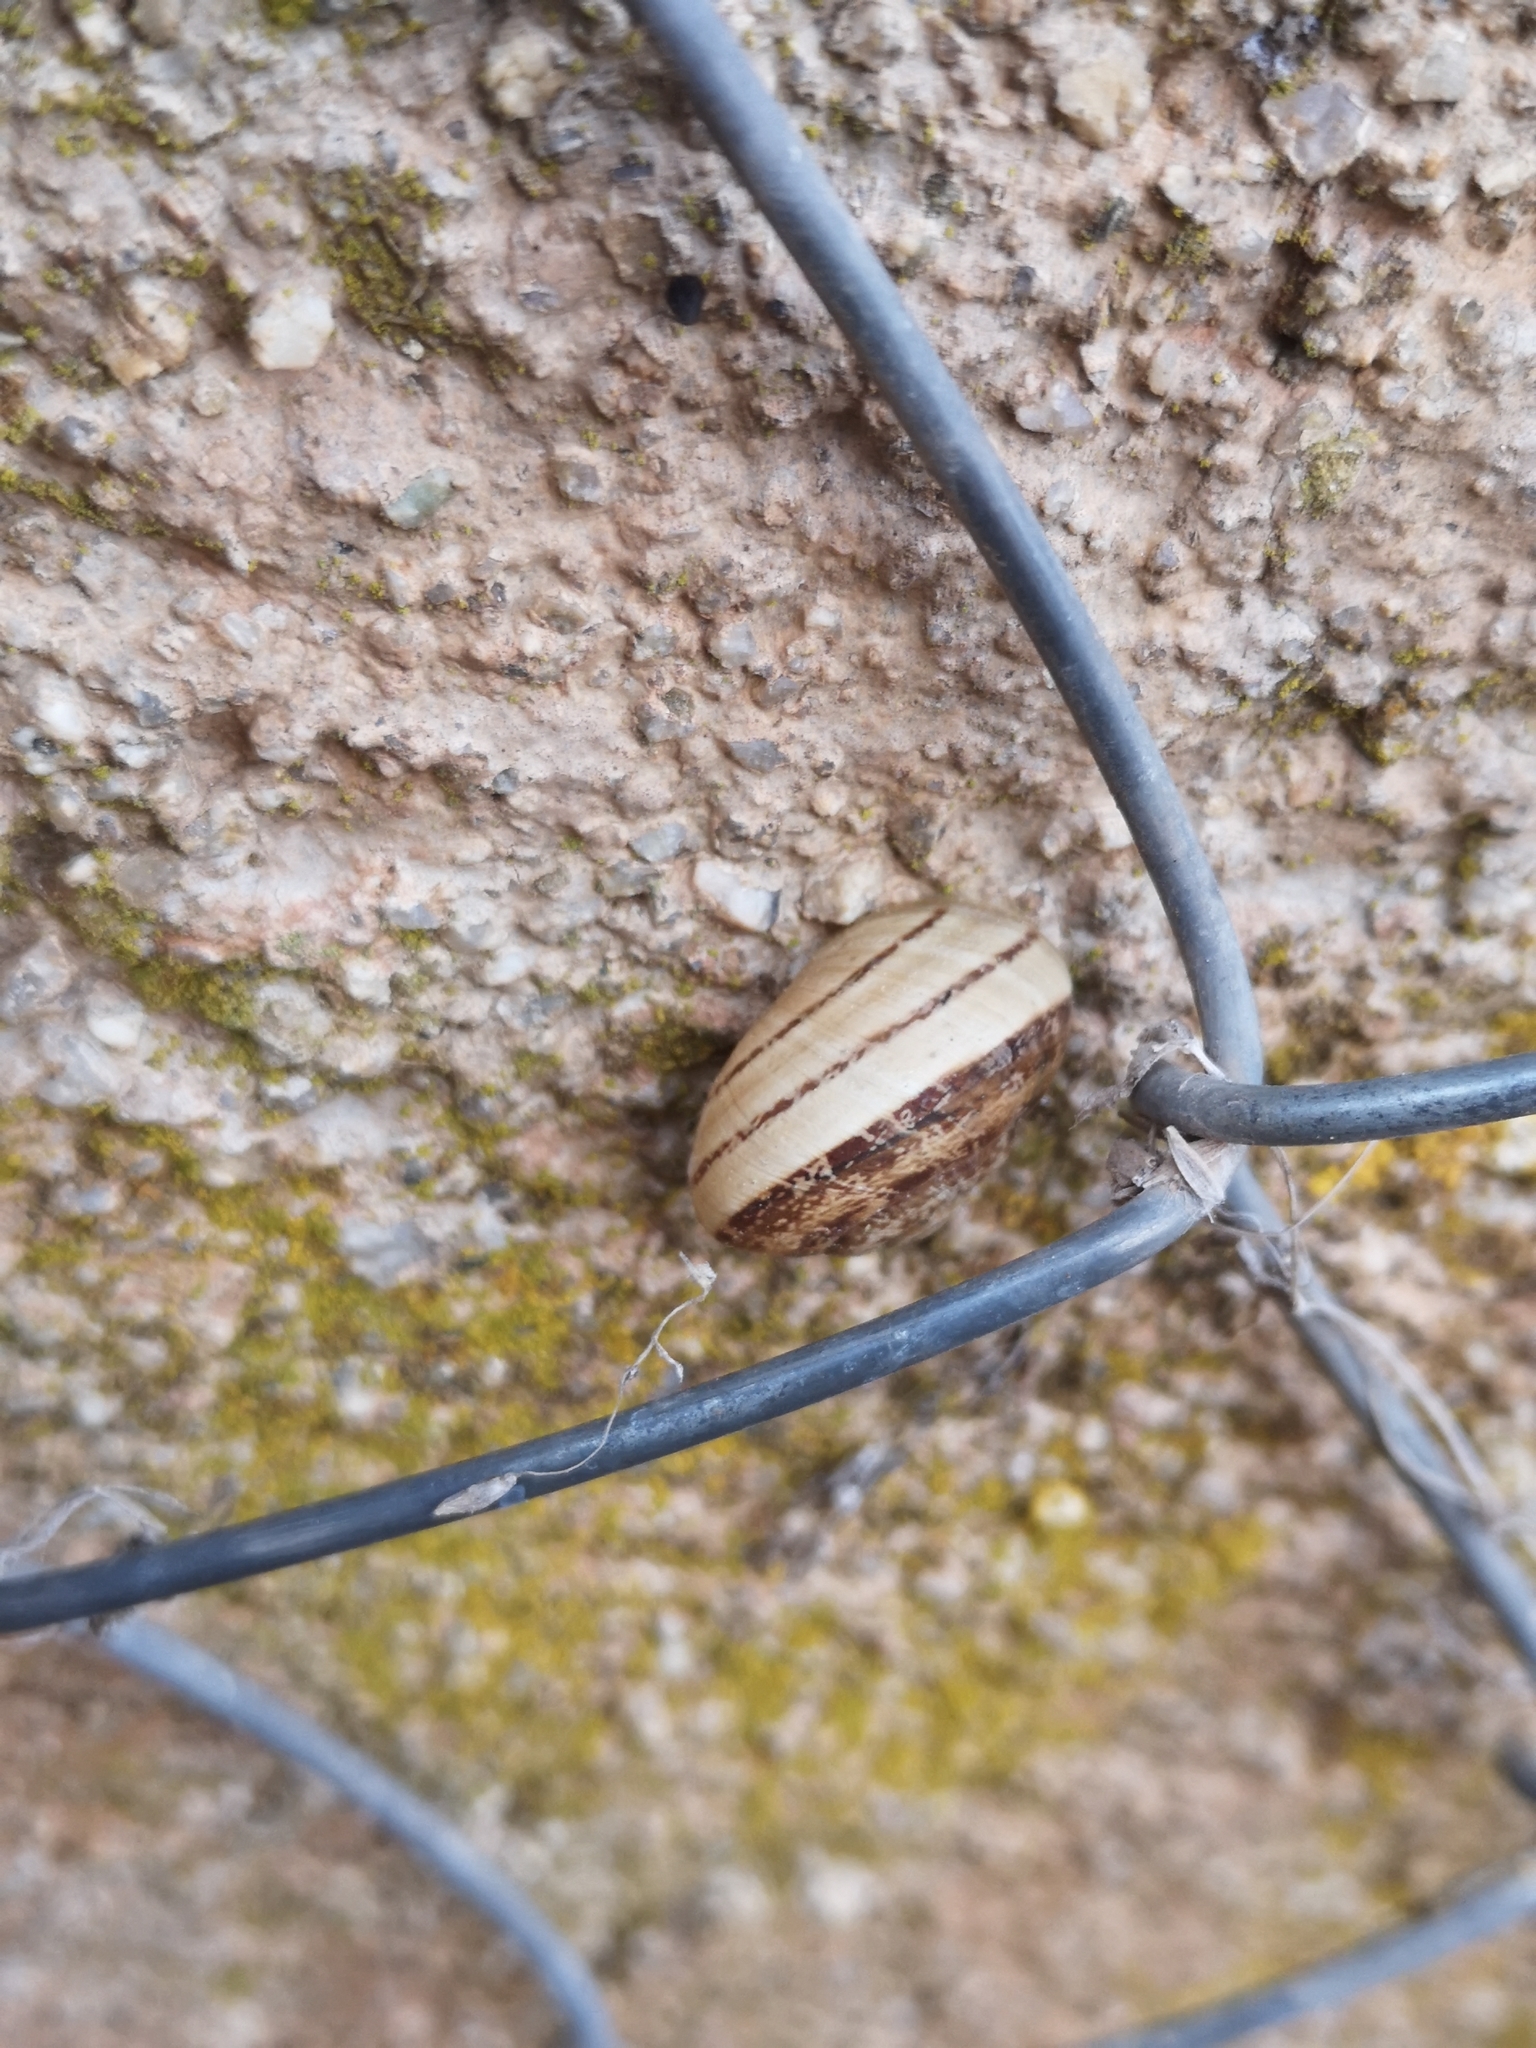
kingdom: Animalia
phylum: Mollusca
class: Gastropoda
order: Stylommatophora
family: Helicidae
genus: Eobania
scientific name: Eobania vermiculata
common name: Chocolateband snail
